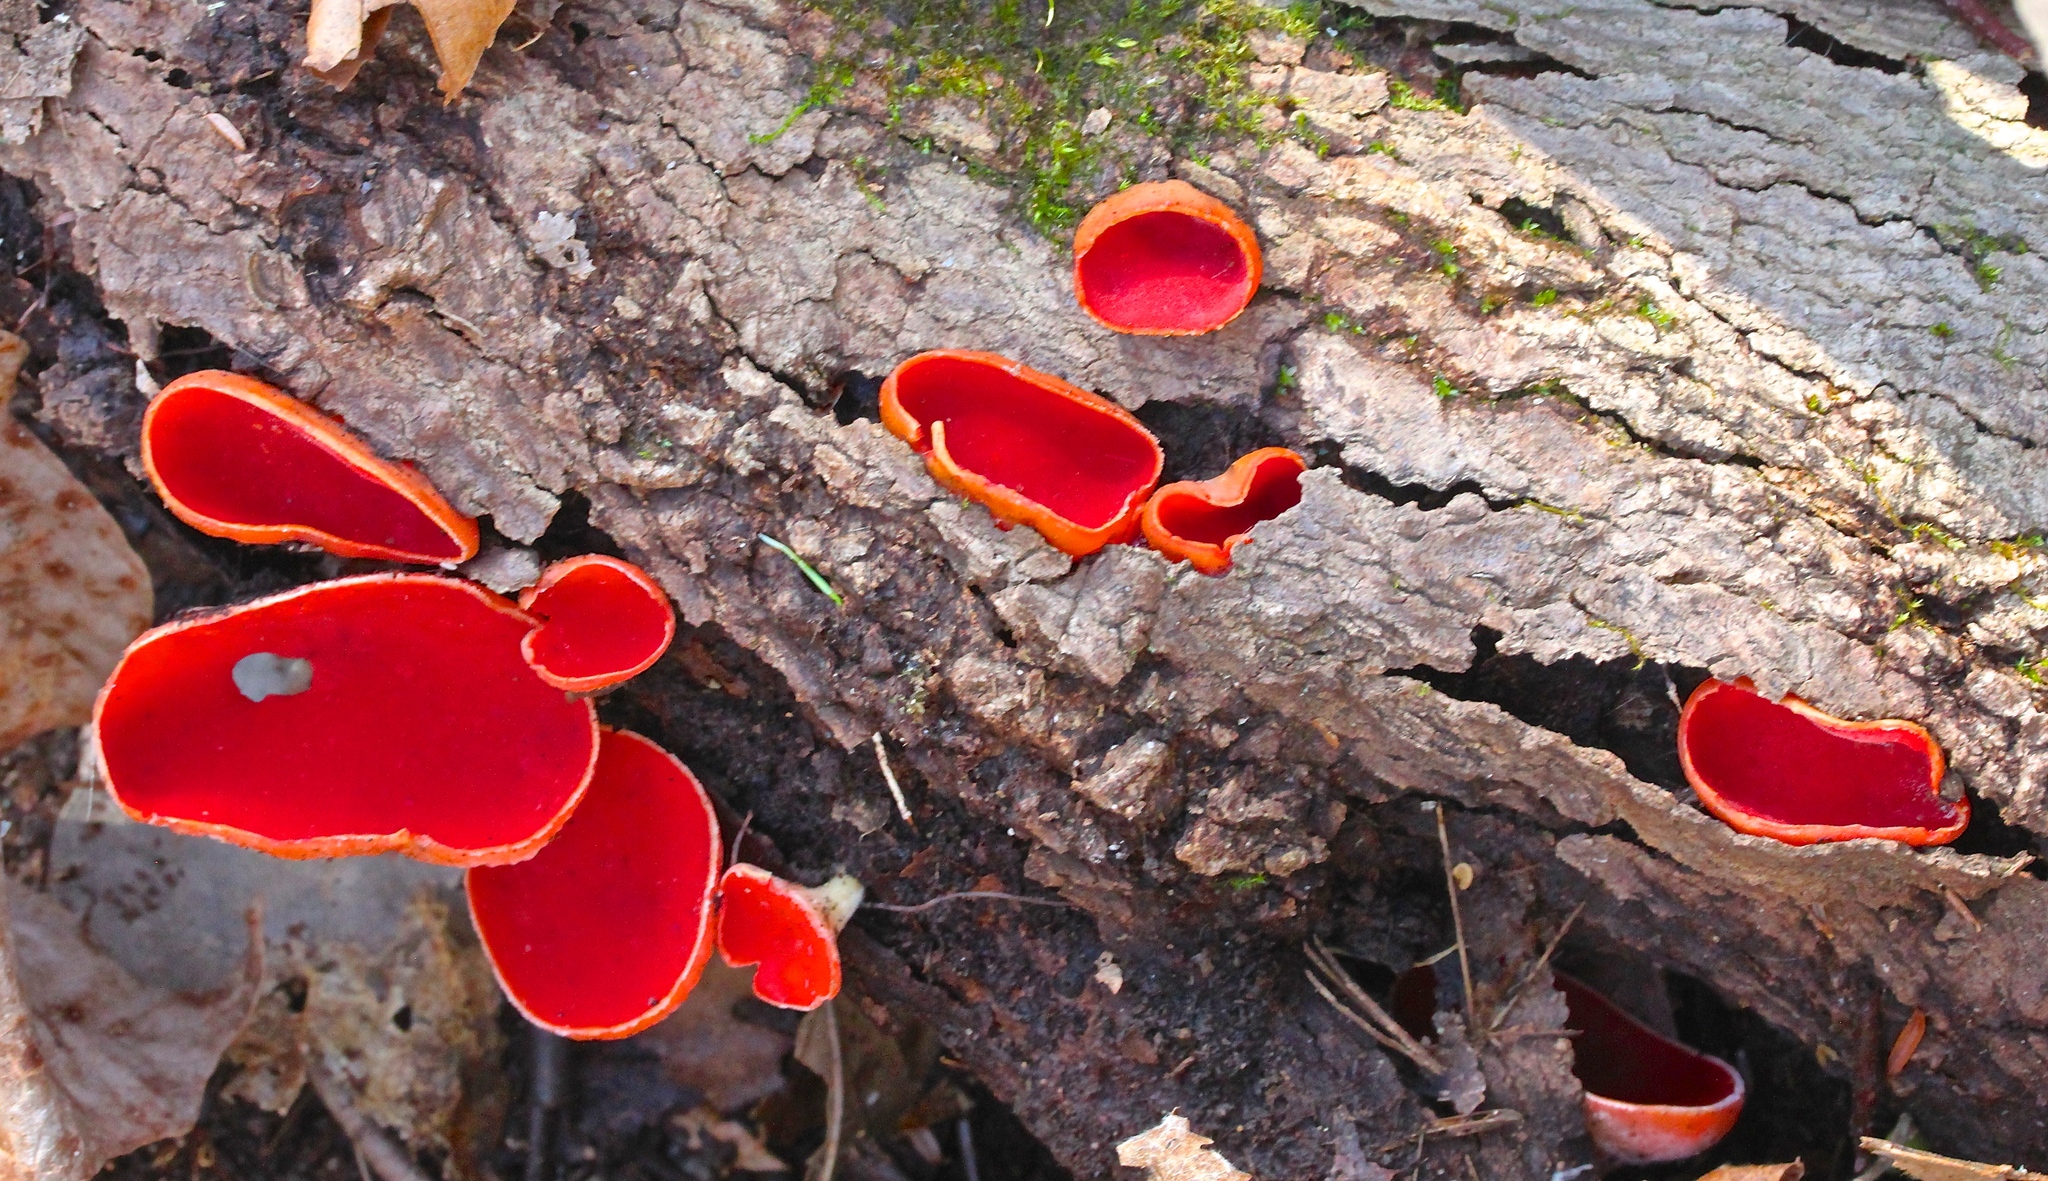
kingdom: Fungi
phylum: Ascomycota
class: Pezizomycetes
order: Pezizales
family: Sarcoscyphaceae
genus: Sarcoscypha
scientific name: Sarcoscypha austriaca
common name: Scarlet elfcup
